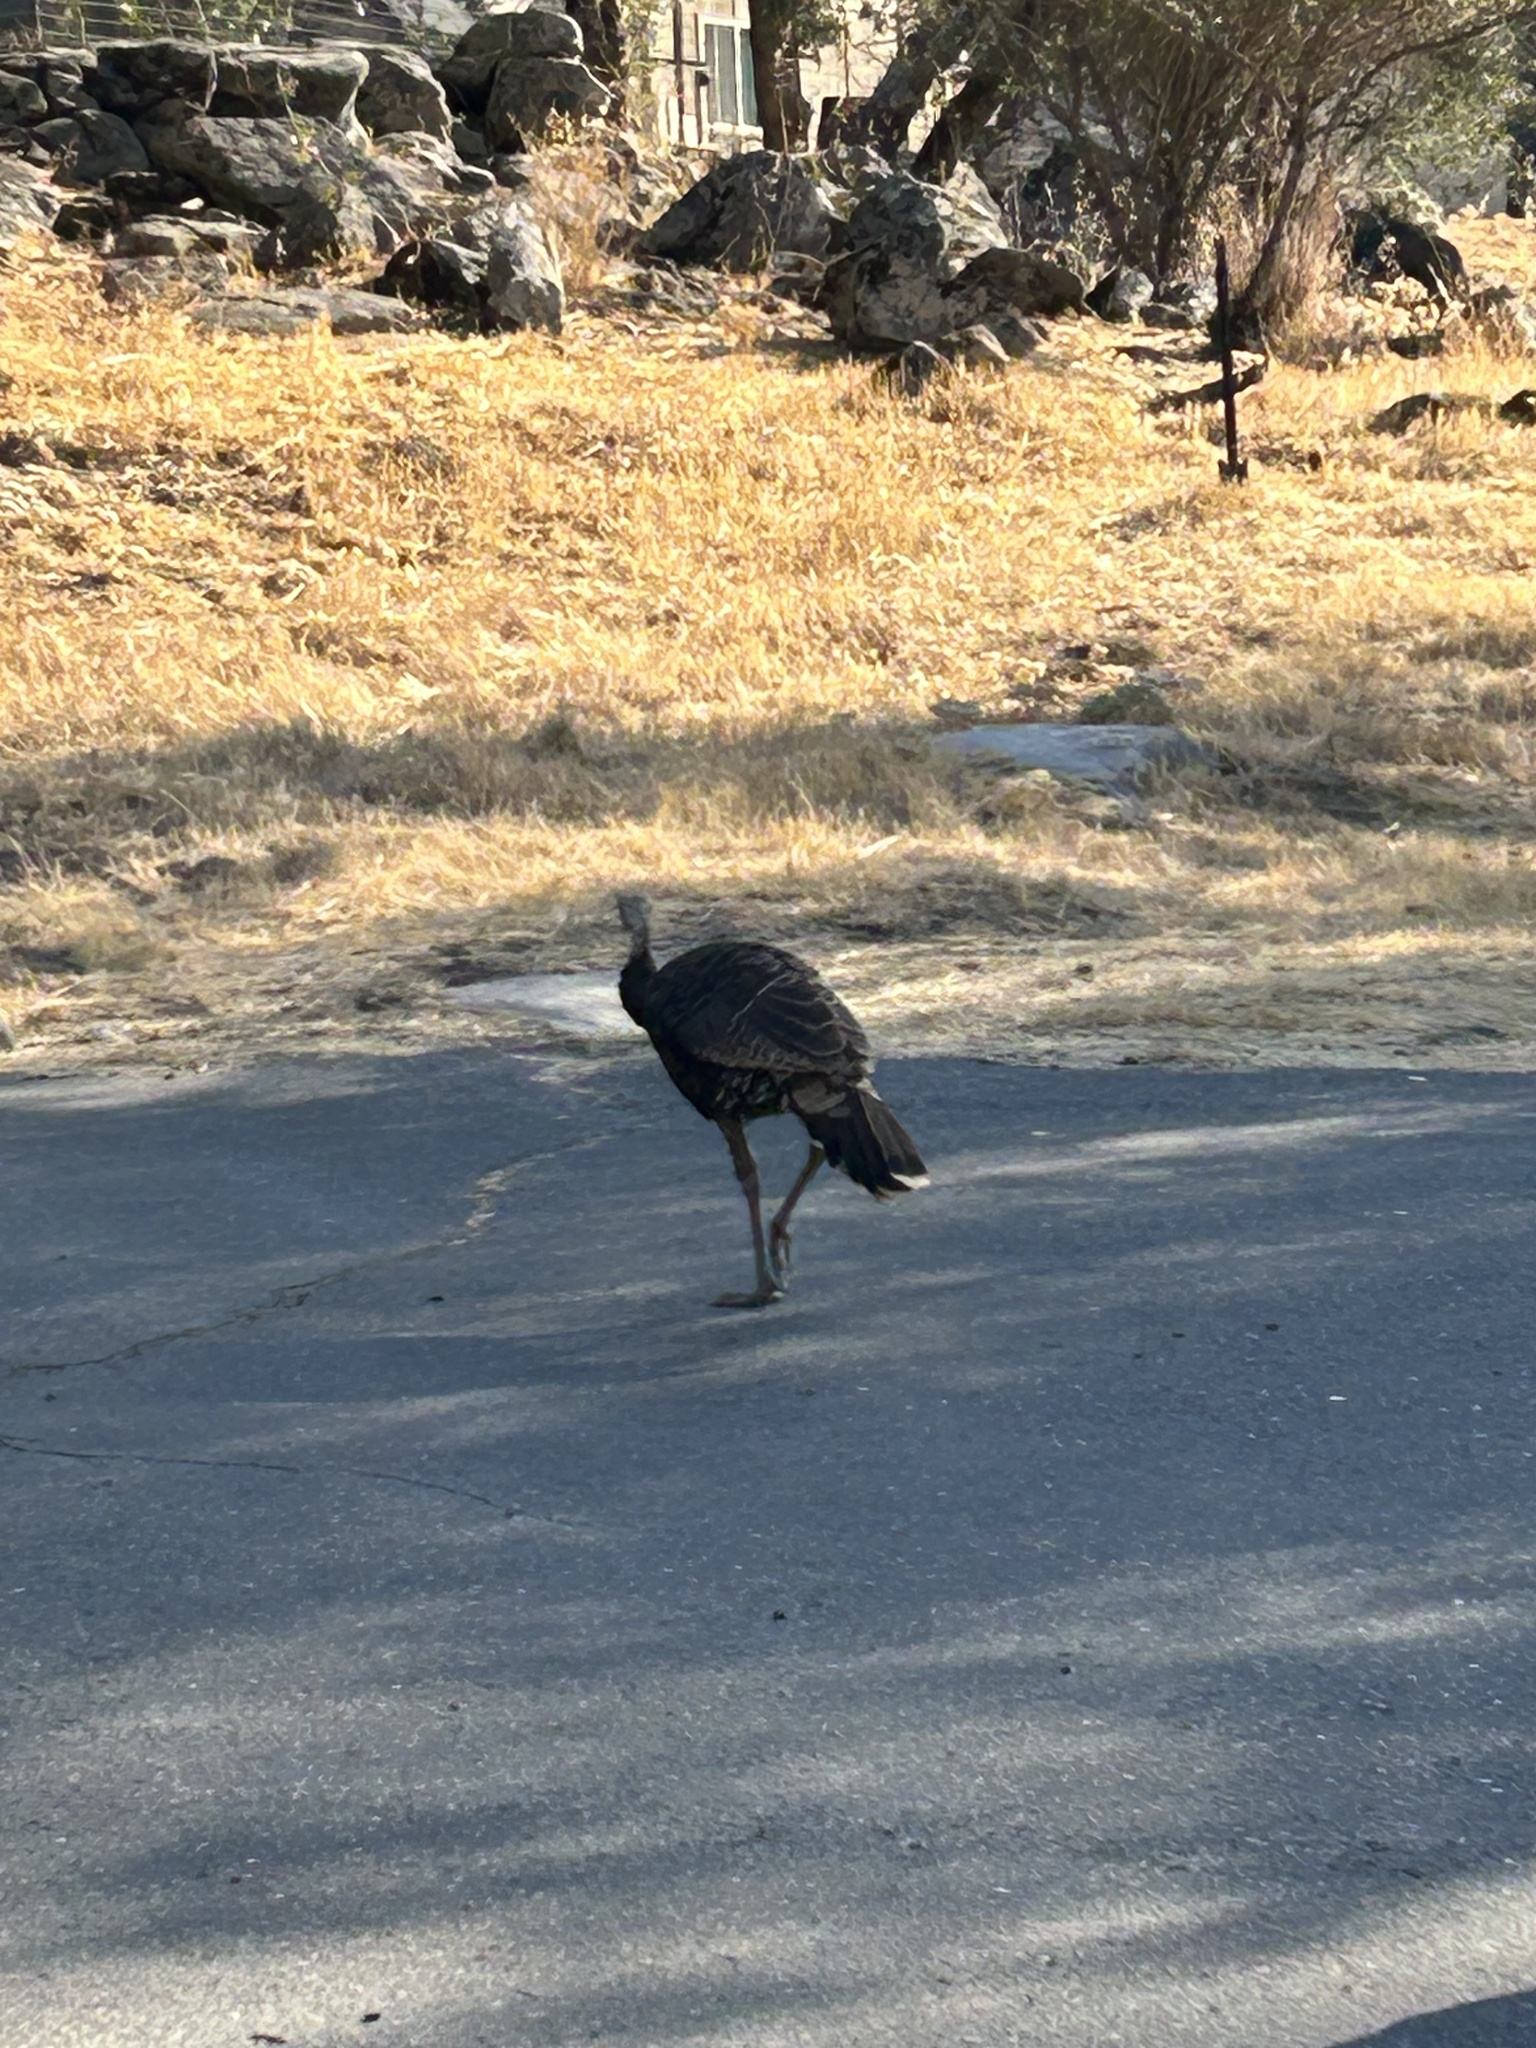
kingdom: Animalia
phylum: Chordata
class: Aves
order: Galliformes
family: Phasianidae
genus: Meleagris
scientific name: Meleagris gallopavo
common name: Wild turkey
